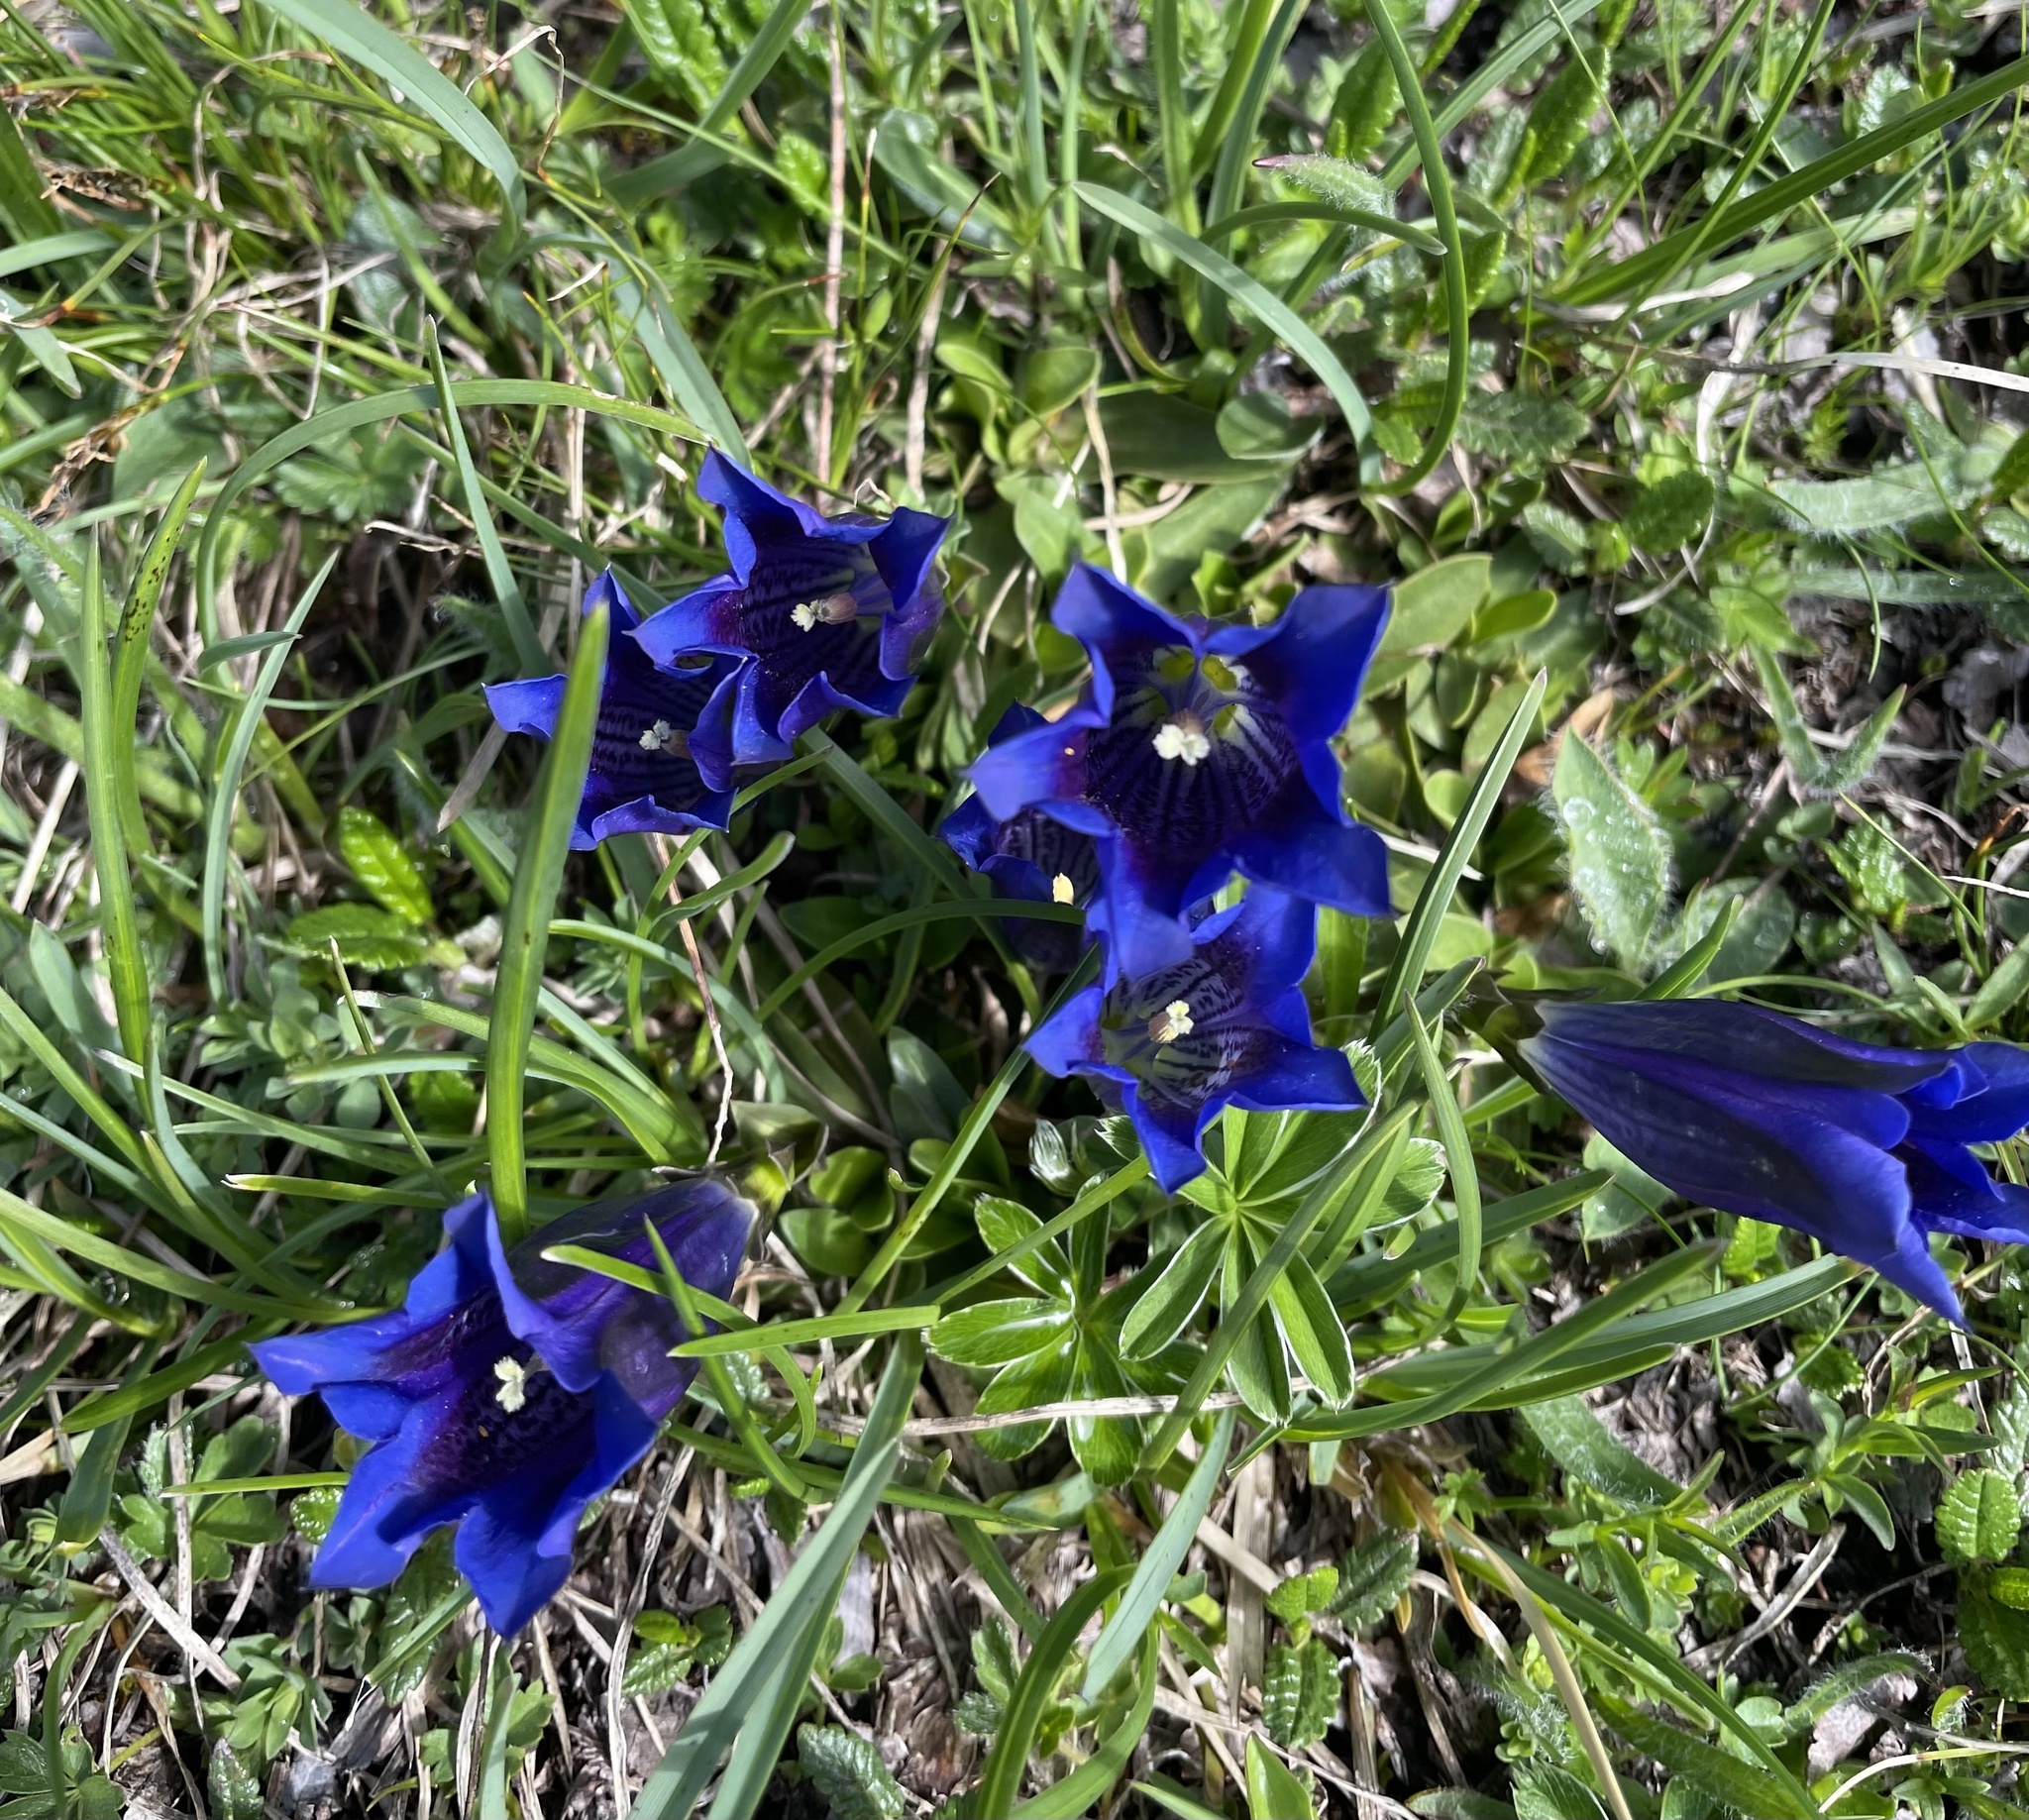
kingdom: Plantae
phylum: Tracheophyta
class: Magnoliopsida
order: Gentianales
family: Gentianaceae
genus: Gentiana
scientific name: Gentiana clusii
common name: Trumpet gentian
